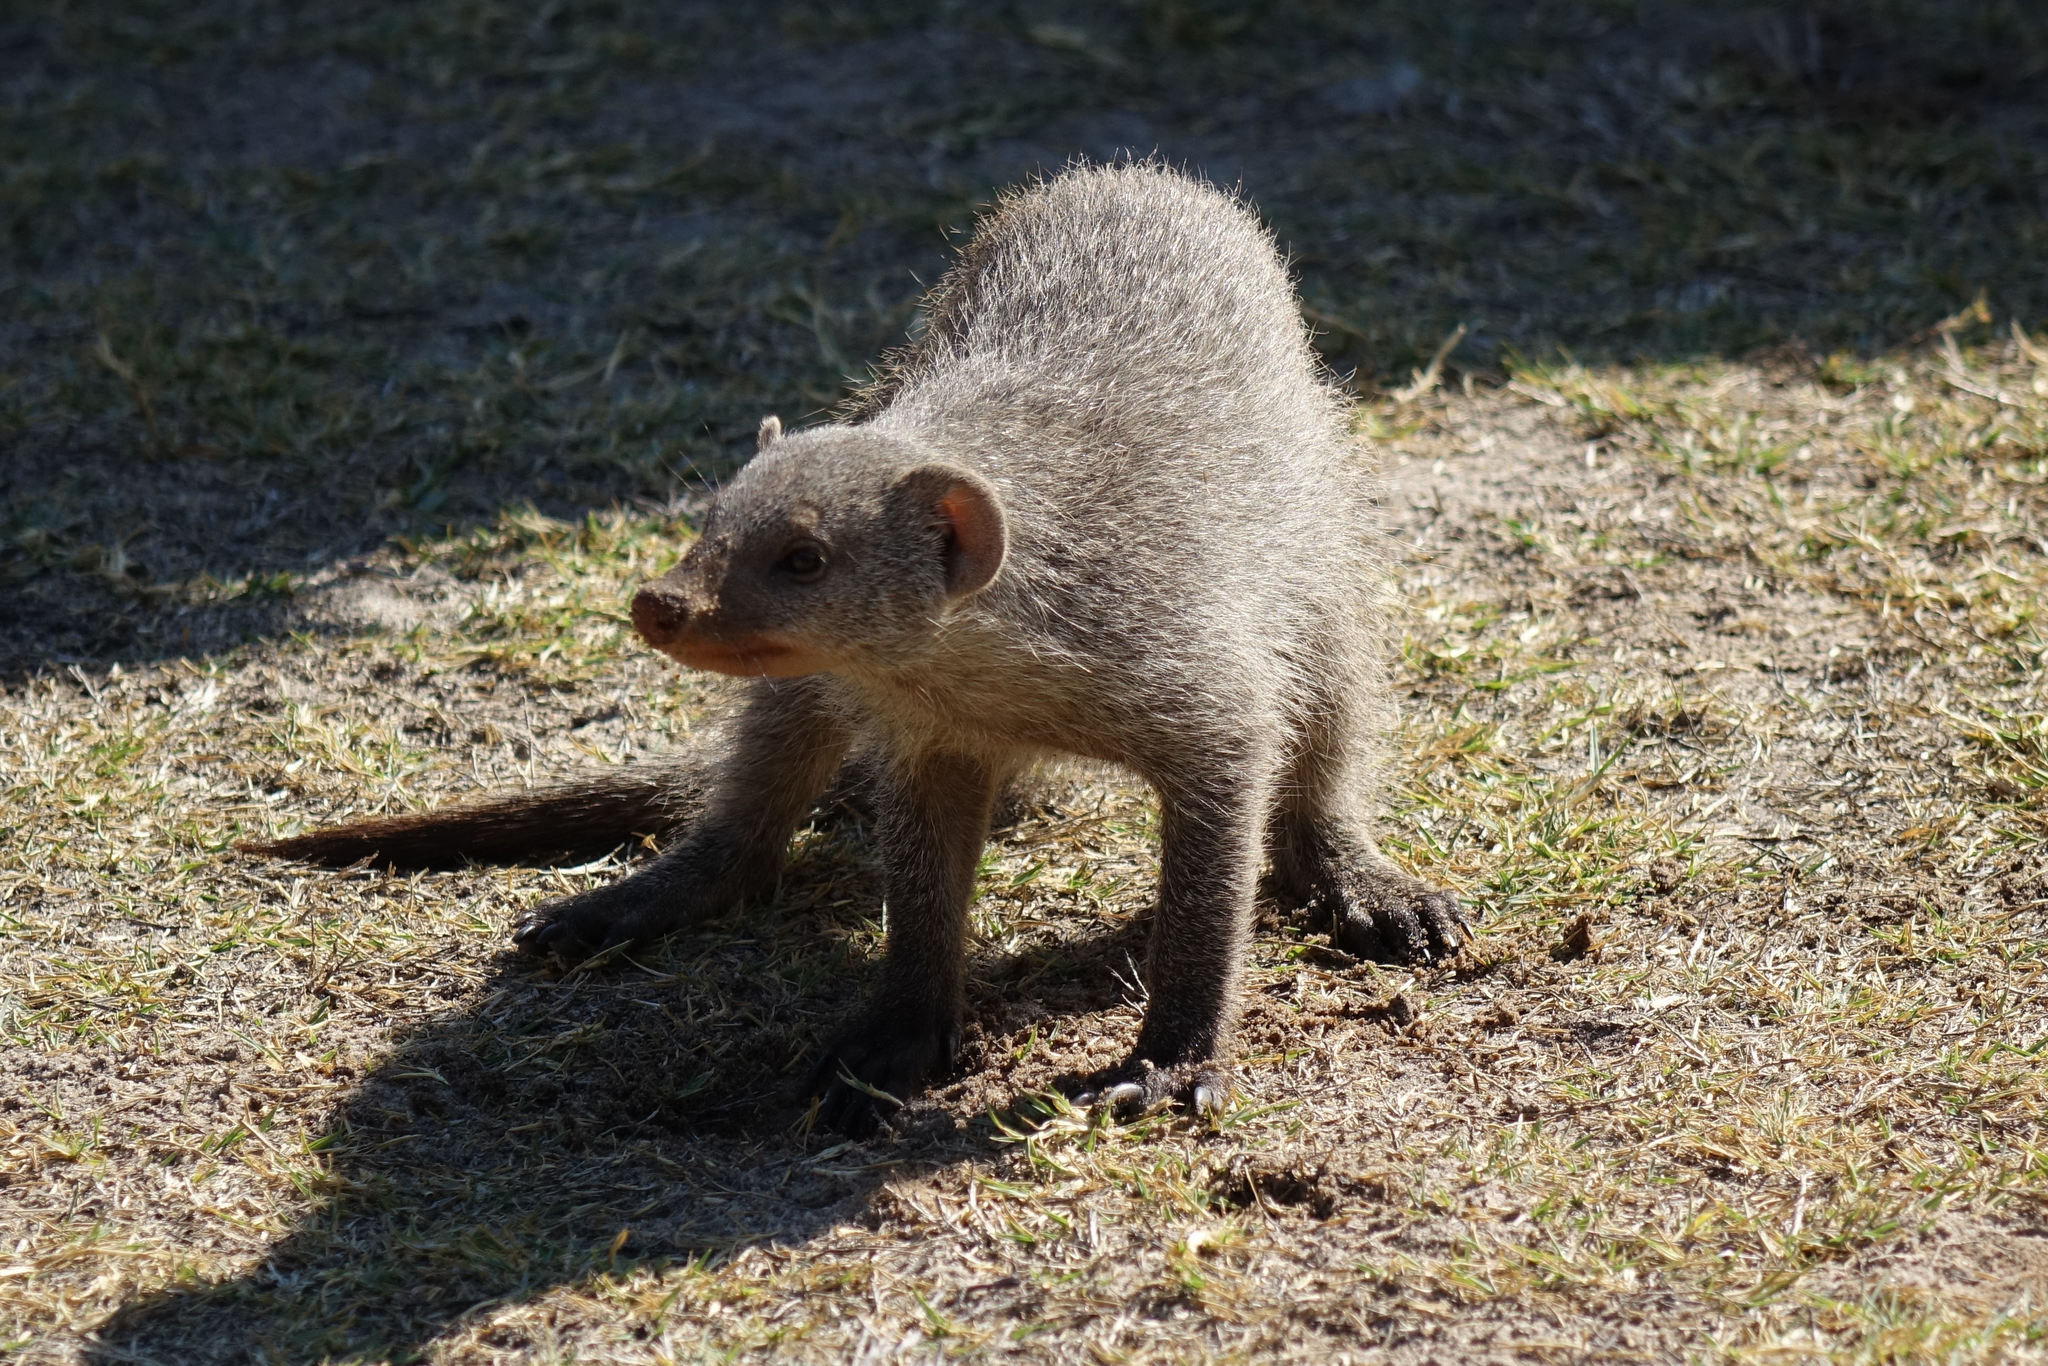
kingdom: Animalia
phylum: Chordata
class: Mammalia
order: Carnivora
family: Herpestidae
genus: Mungos
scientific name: Mungos mungo
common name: Banded mongoose
